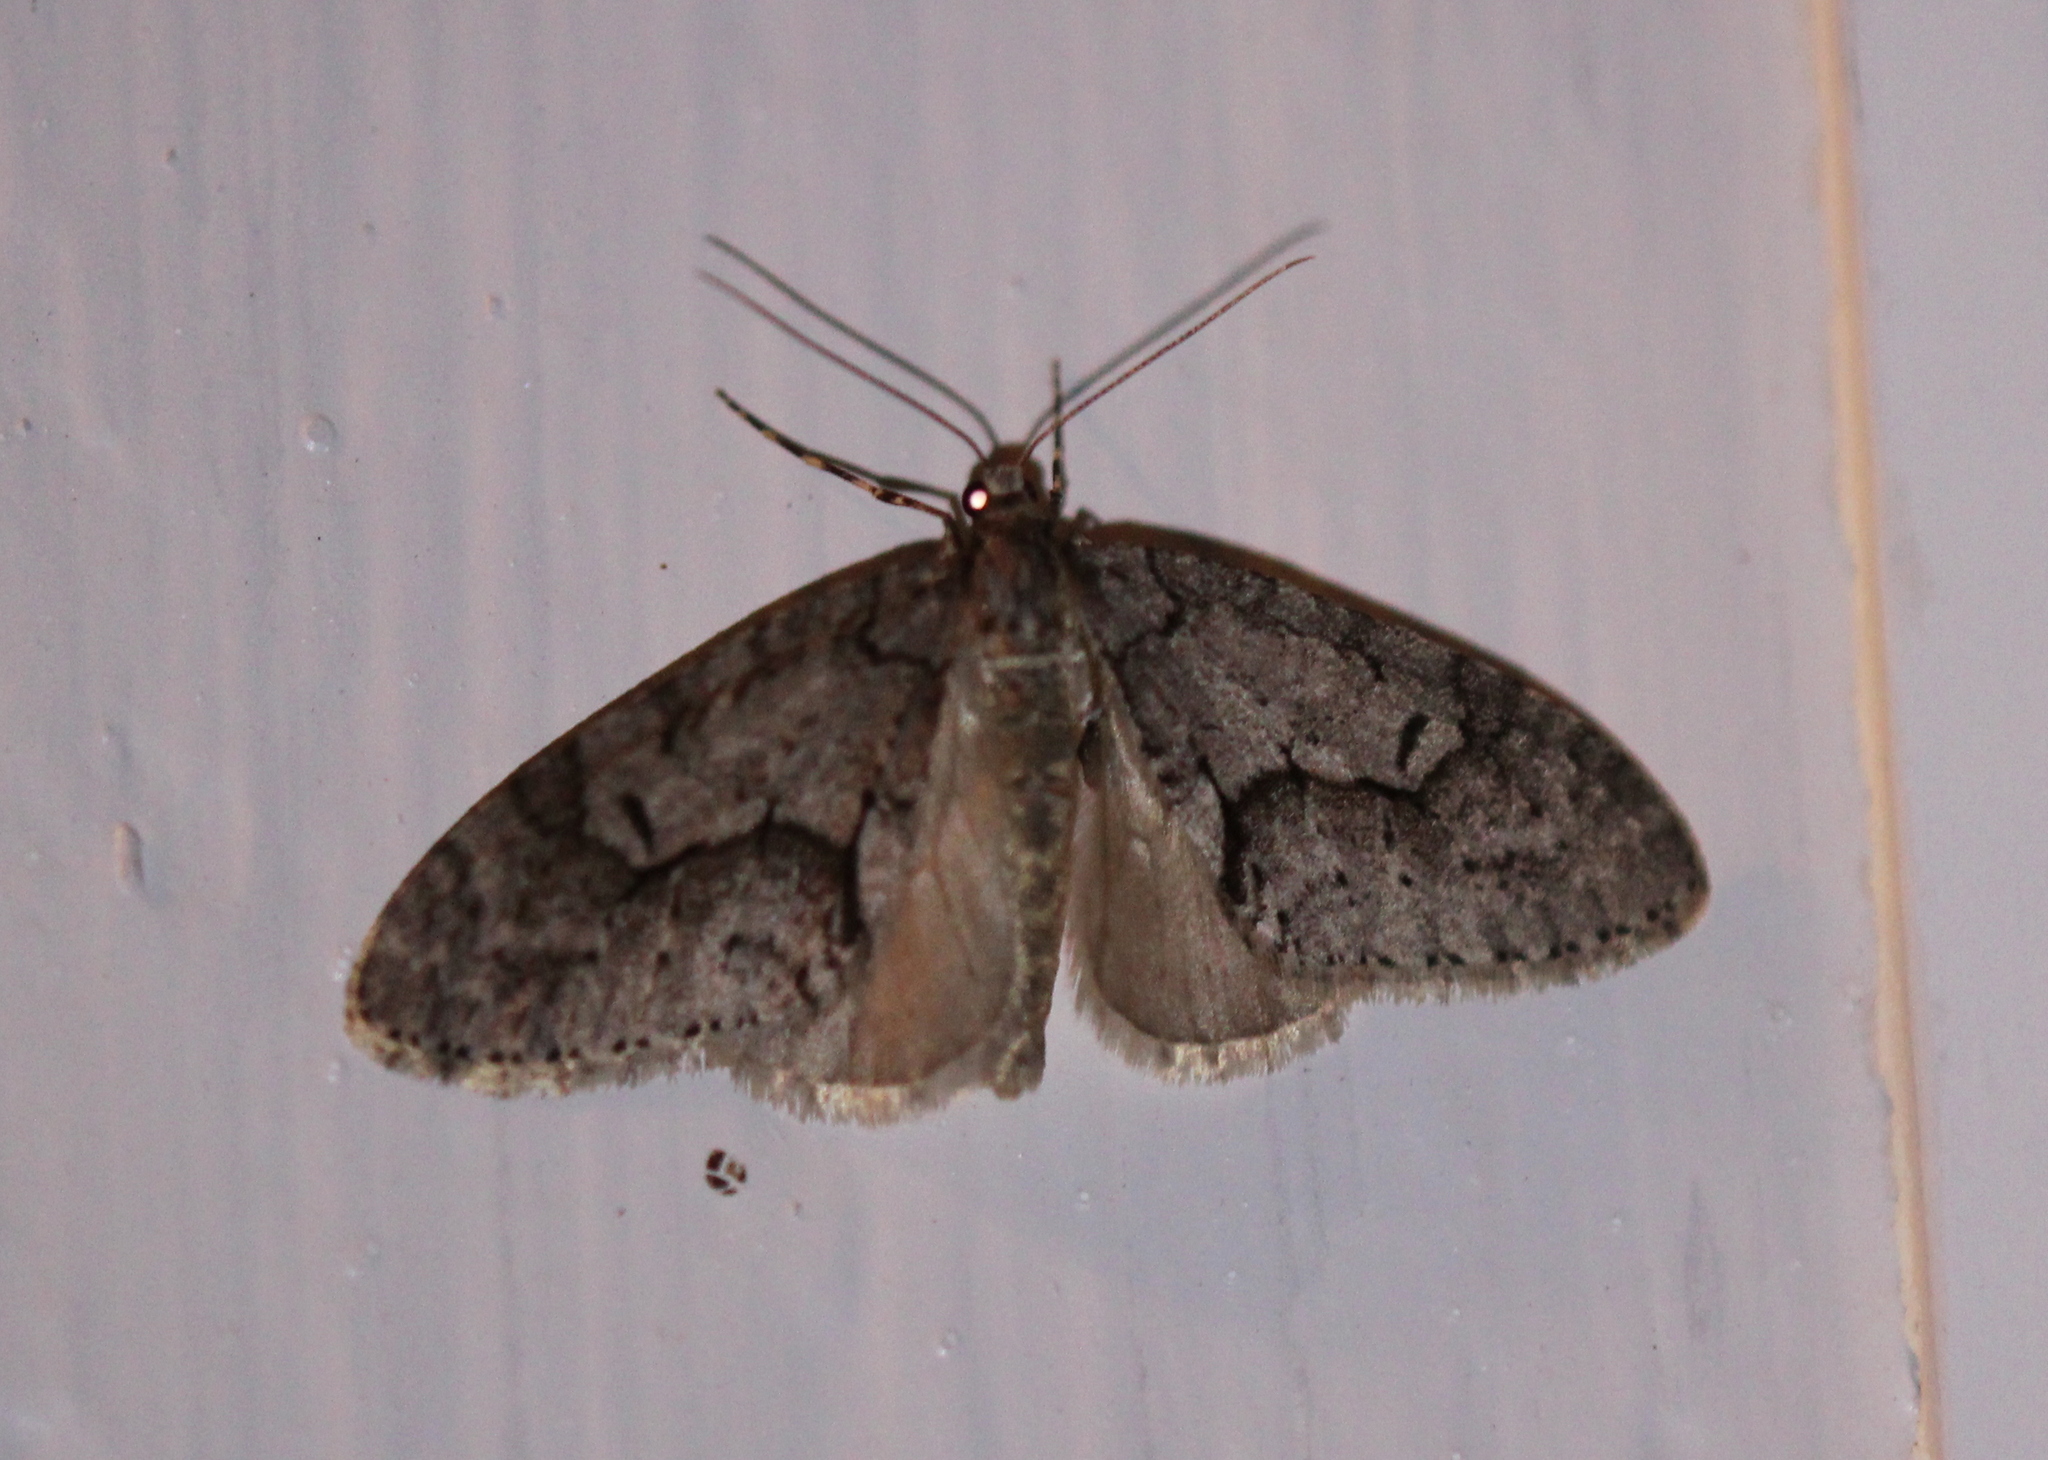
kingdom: Animalia
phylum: Arthropoda
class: Insecta
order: Lepidoptera
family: Geometridae
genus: Cladara
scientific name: Cladara limitaria
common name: Mottled gray carpet
